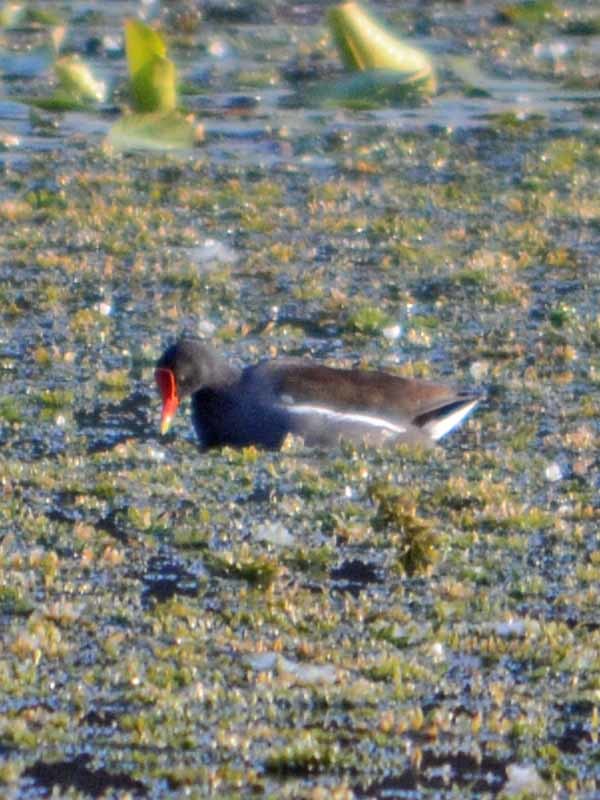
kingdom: Animalia
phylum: Chordata
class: Aves
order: Gruiformes
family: Rallidae
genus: Gallinula
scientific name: Gallinula chloropus
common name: Common moorhen
